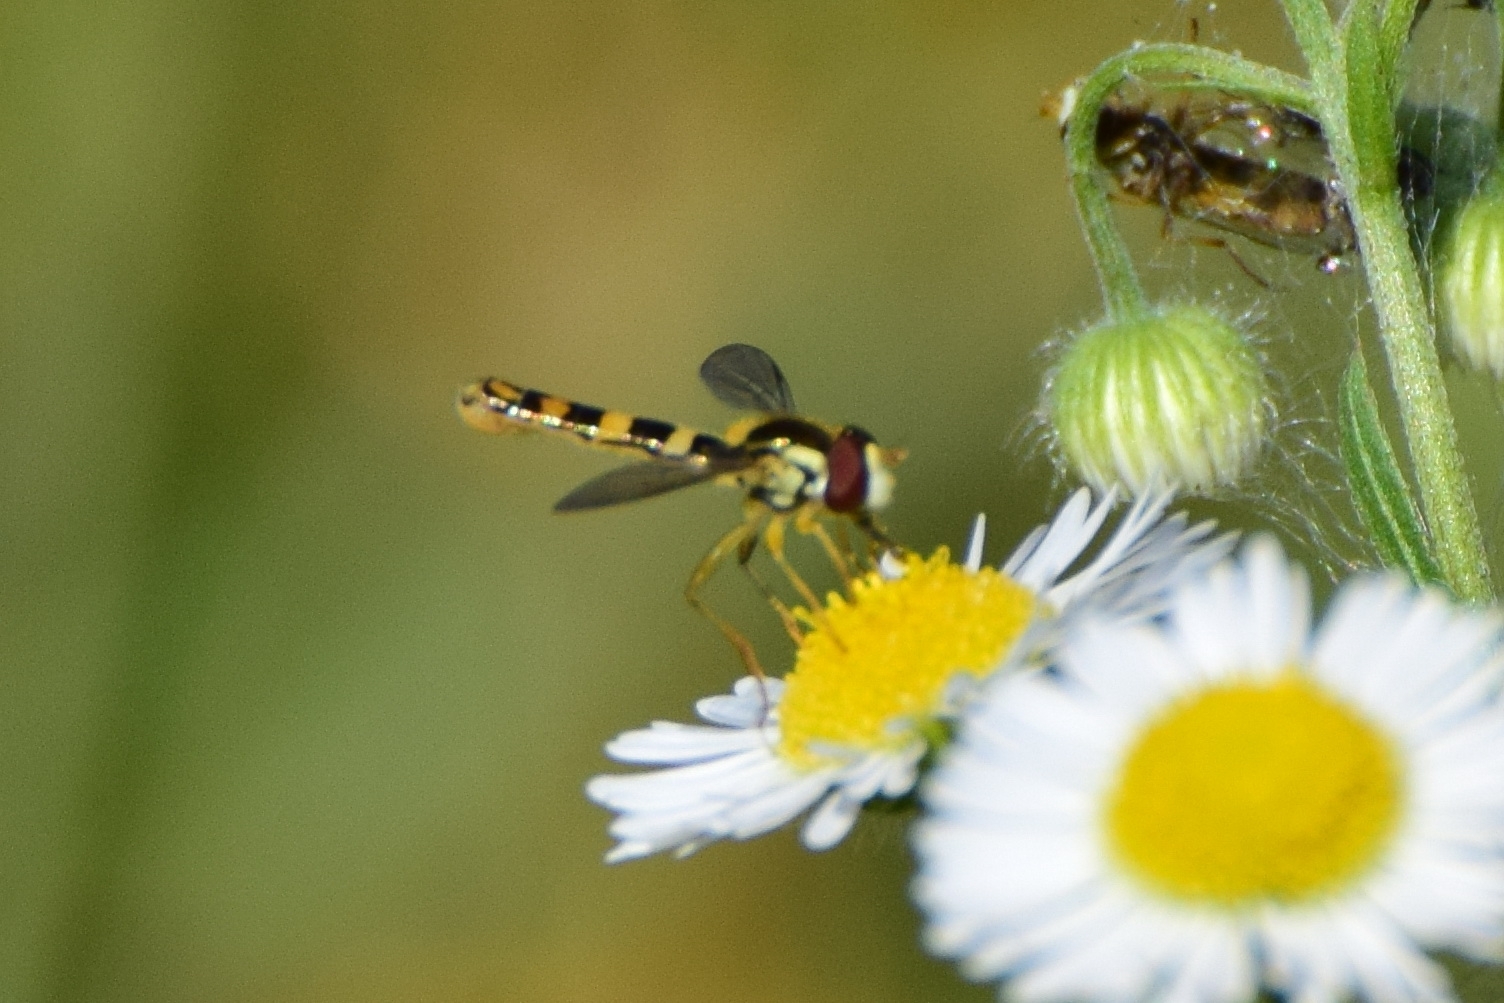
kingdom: Animalia
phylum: Arthropoda
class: Insecta
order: Diptera
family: Syrphidae
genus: Sphaerophoria
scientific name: Sphaerophoria scripta
